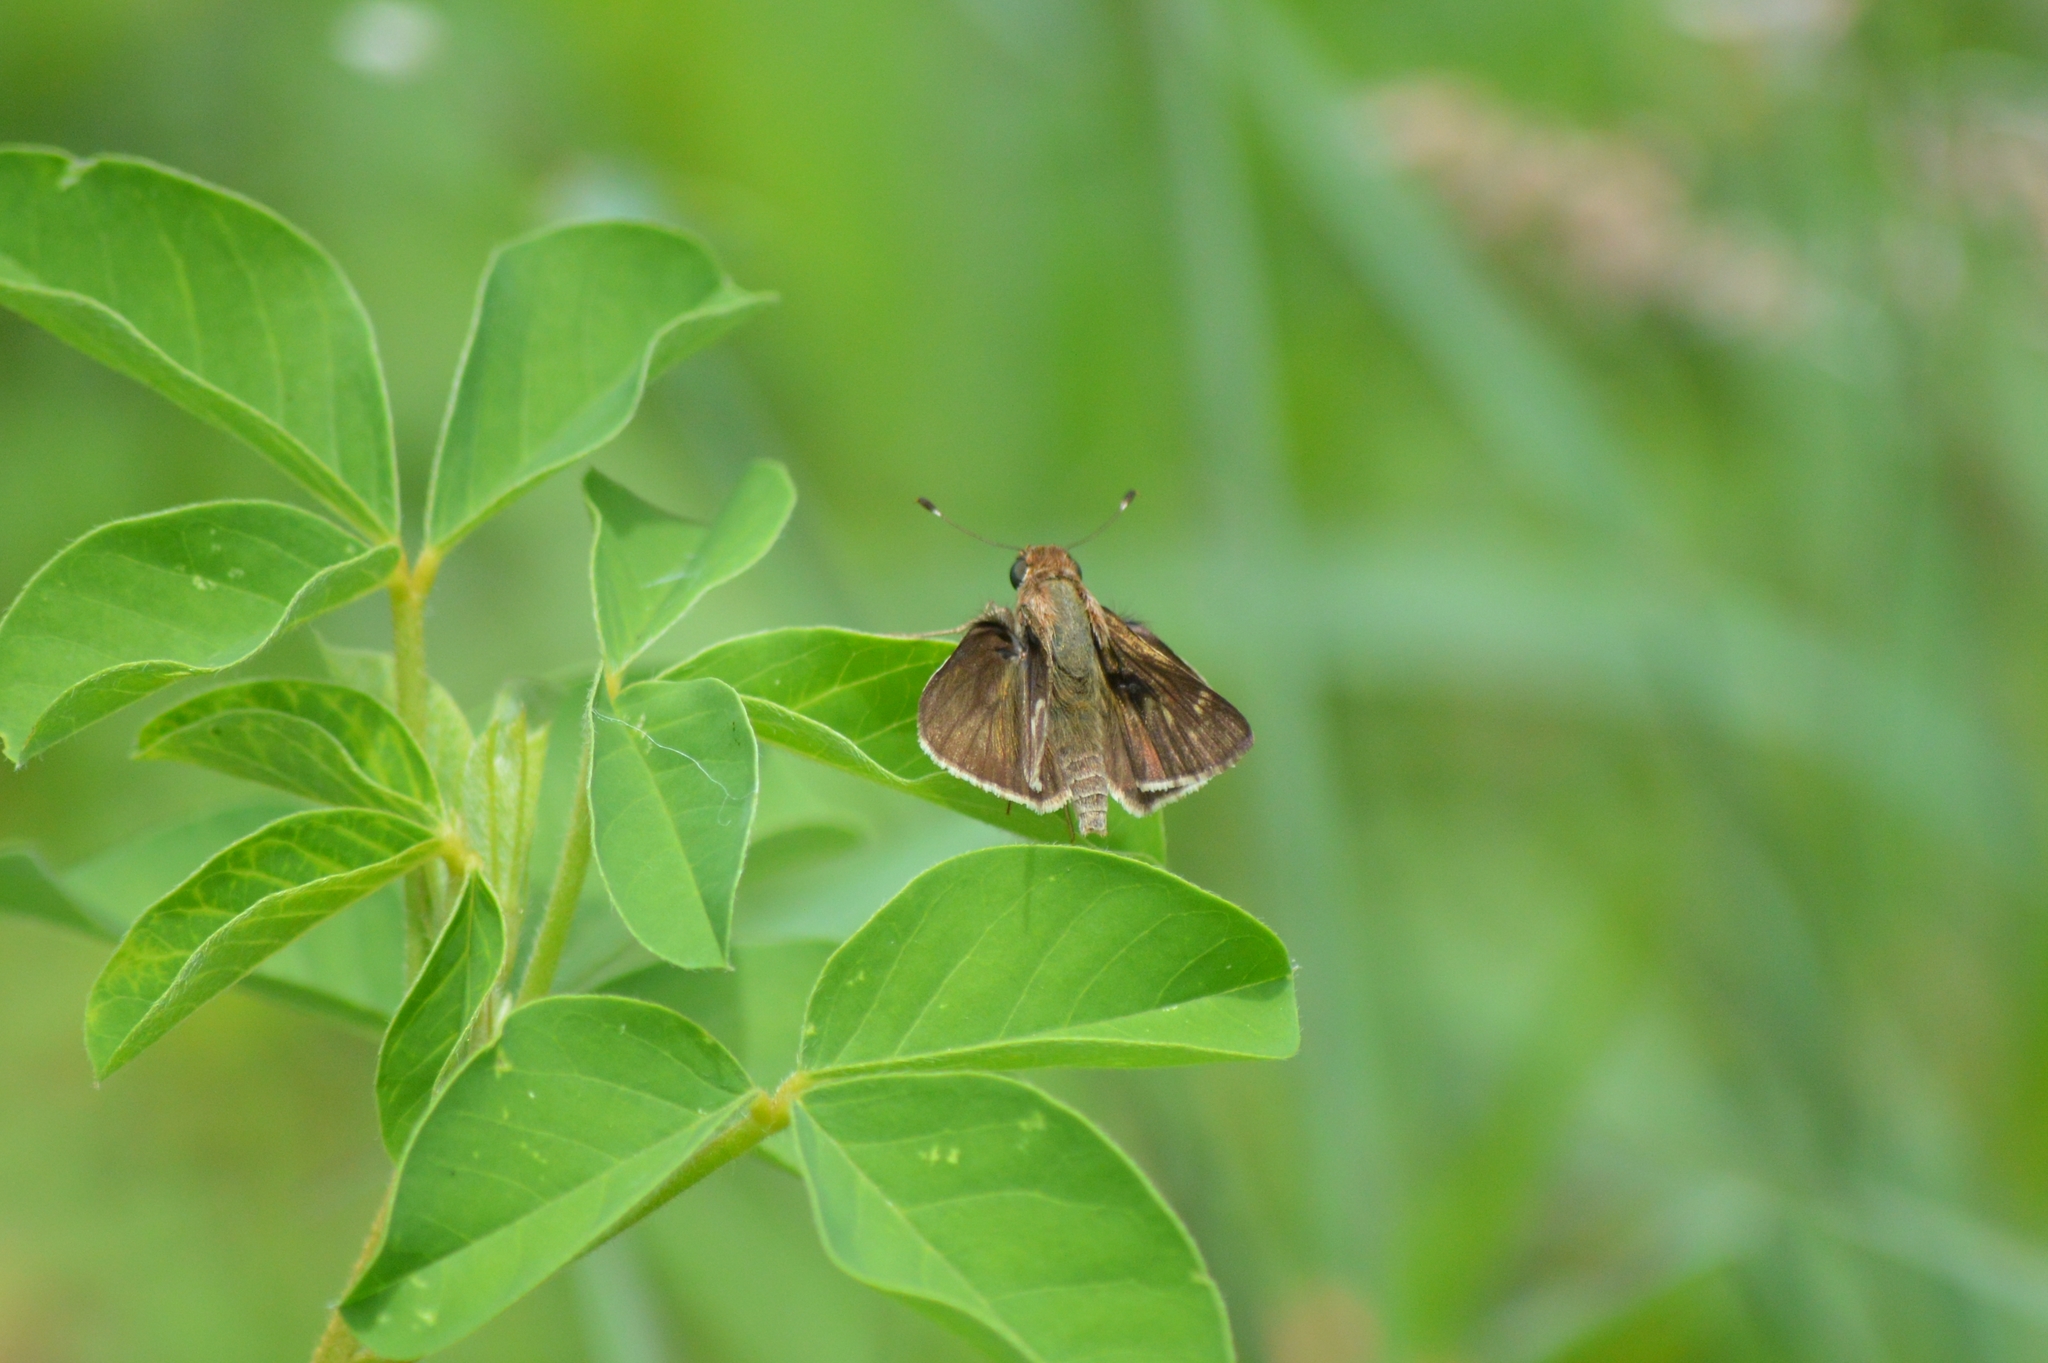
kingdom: Animalia
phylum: Arthropoda
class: Insecta
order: Lepidoptera
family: Hesperiidae
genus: Pompeius
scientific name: Pompeius pompeius
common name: Pompeius skipper
